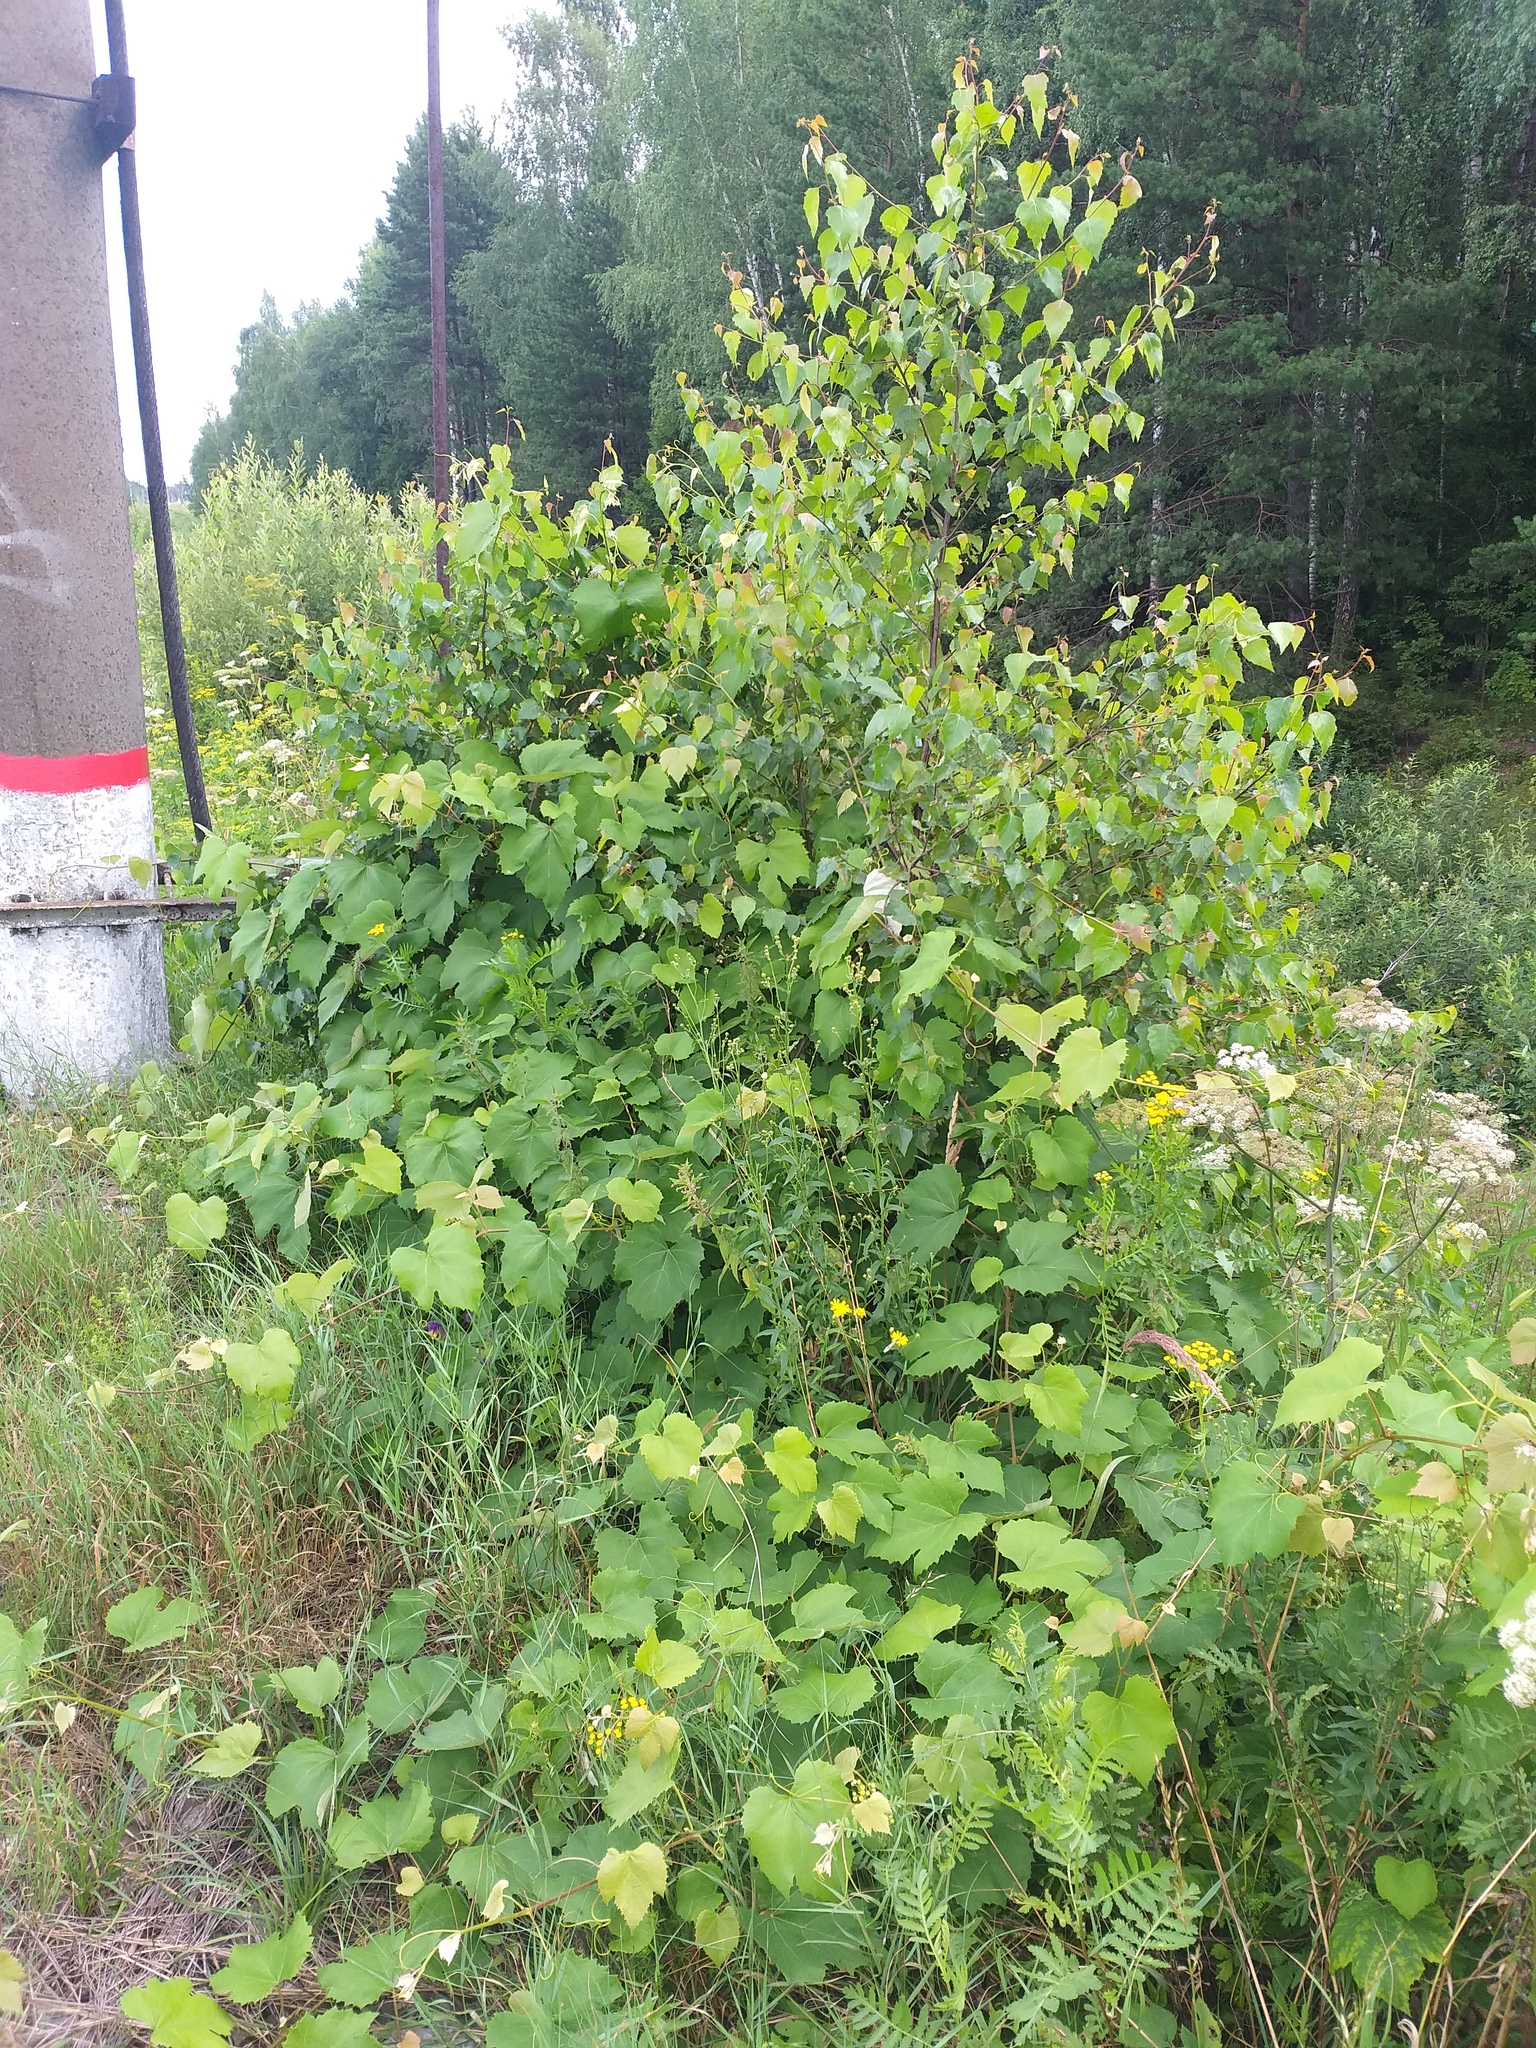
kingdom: Plantae
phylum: Tracheophyta
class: Magnoliopsida
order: Vitales
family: Vitaceae
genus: Vitis
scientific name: Vitis labrusca
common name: Concord grape
